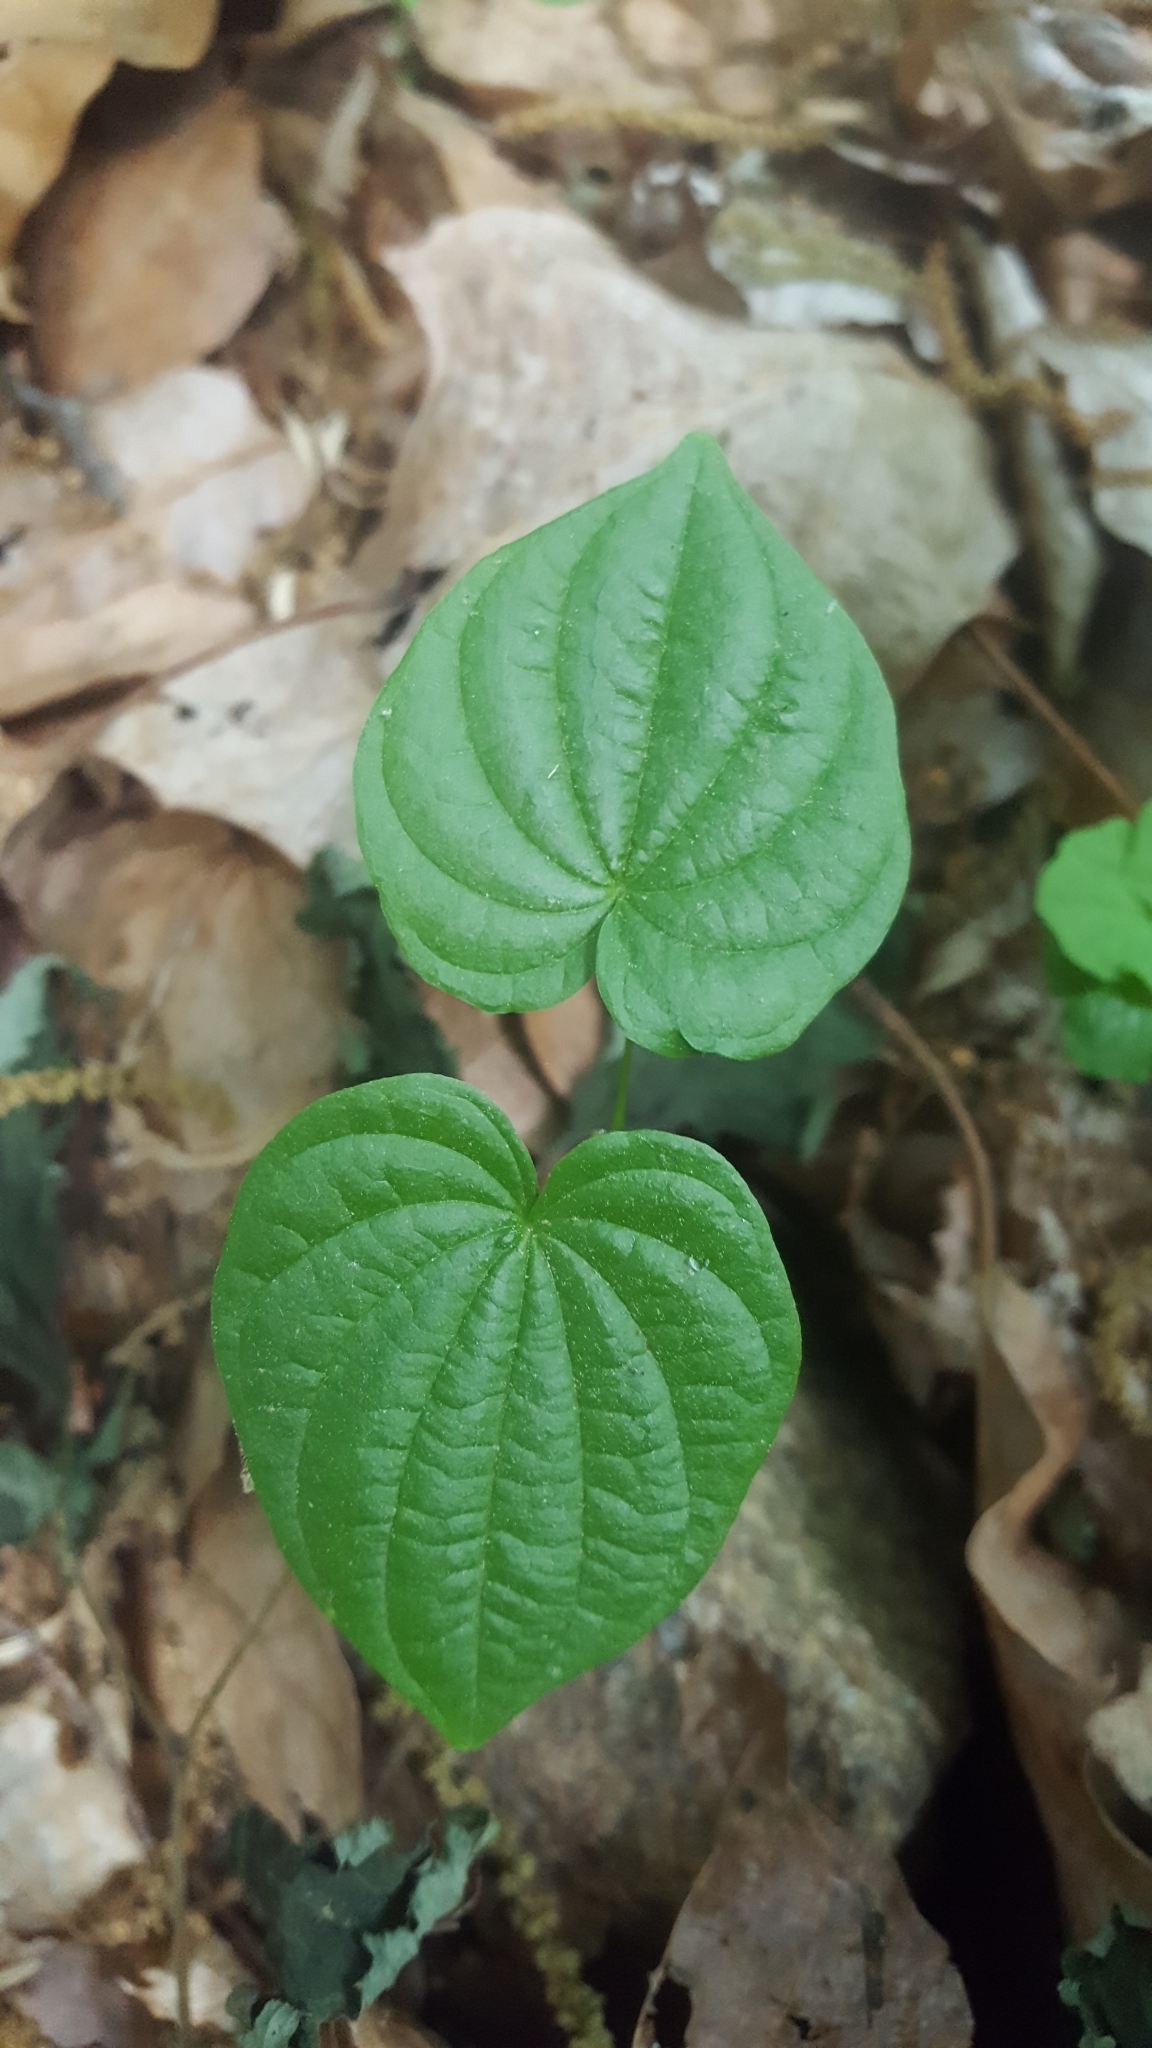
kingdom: Plantae
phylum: Tracheophyta
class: Liliopsida
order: Dioscoreales
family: Dioscoreaceae
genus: Dioscorea
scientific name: Dioscorea villosa
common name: Wild yam
